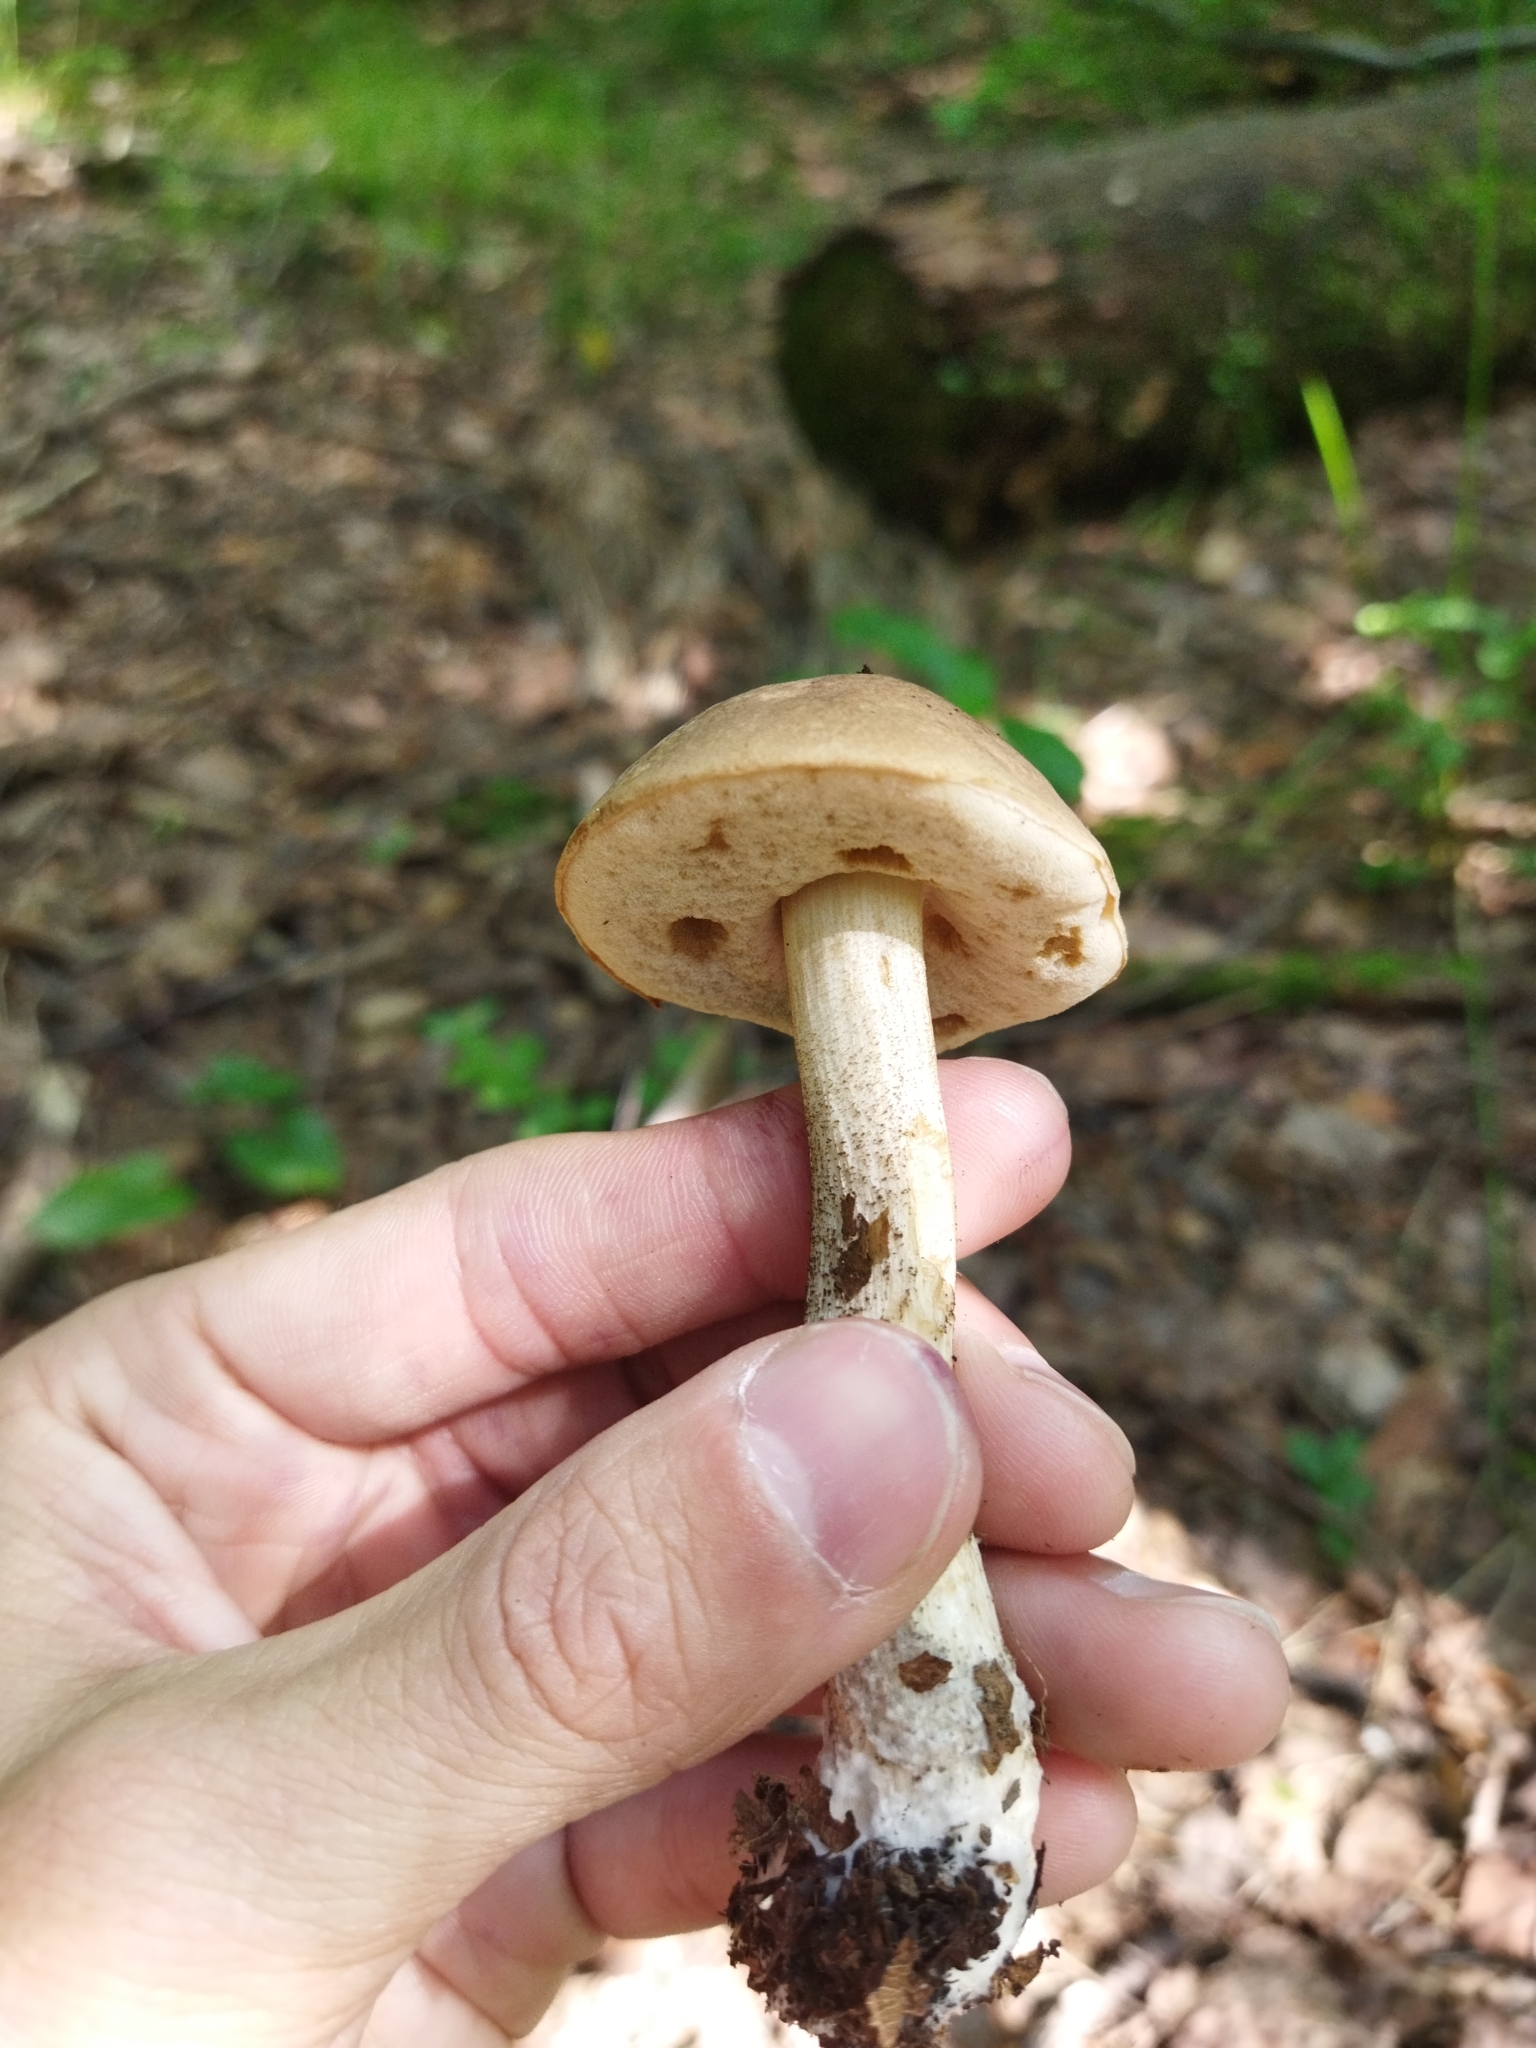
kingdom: Fungi
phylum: Basidiomycota
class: Agaricomycetes
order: Boletales
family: Boletaceae
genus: Leccinum
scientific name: Leccinum scabrum
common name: Blushing bolete
